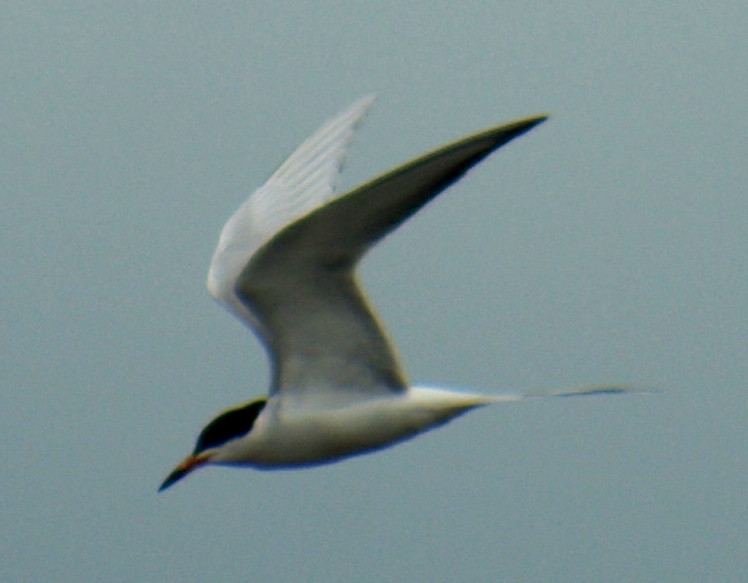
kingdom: Animalia
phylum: Chordata
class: Aves
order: Charadriiformes
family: Laridae
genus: Sterna
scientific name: Sterna forsteri
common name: Forster's tern
